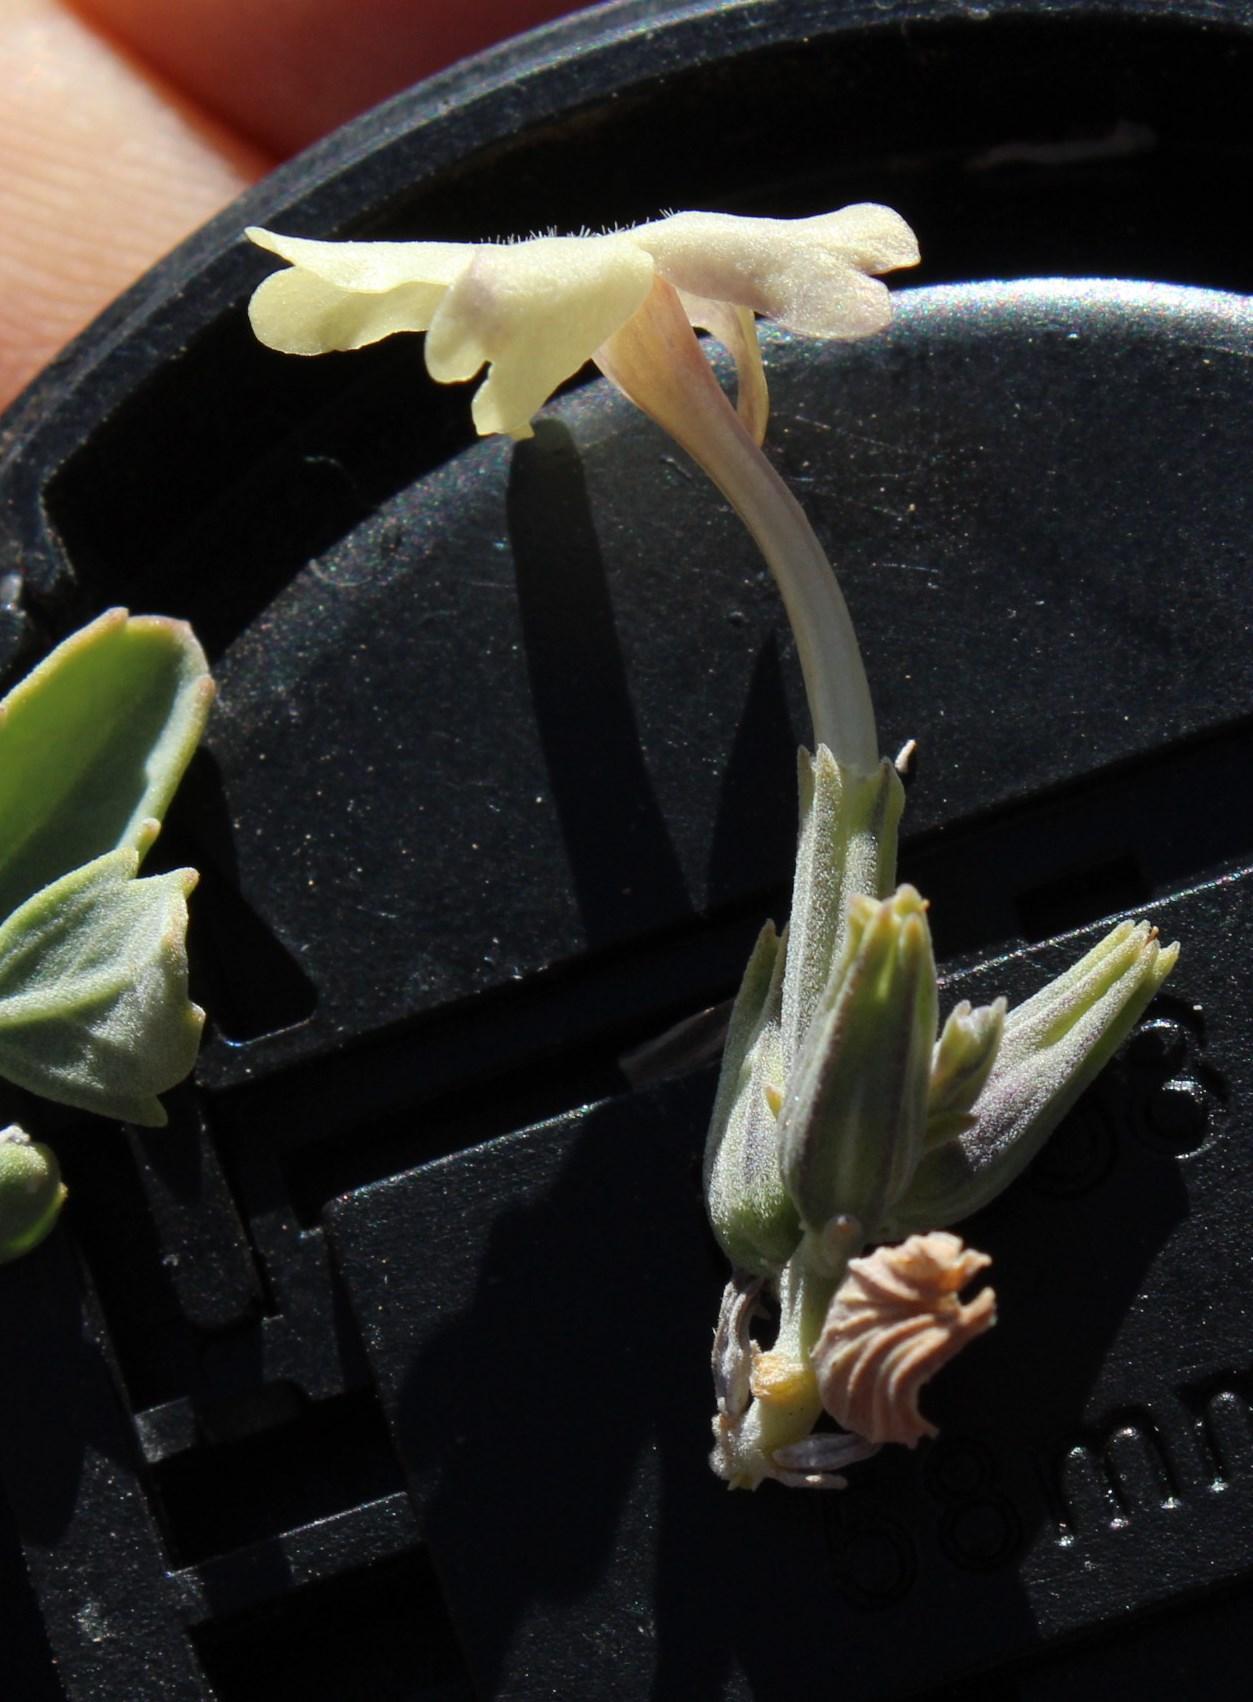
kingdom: Plantae
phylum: Tracheophyta
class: Magnoliopsida
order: Lamiales
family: Verbenaceae
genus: Chascanum
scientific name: Chascanum pumilum
